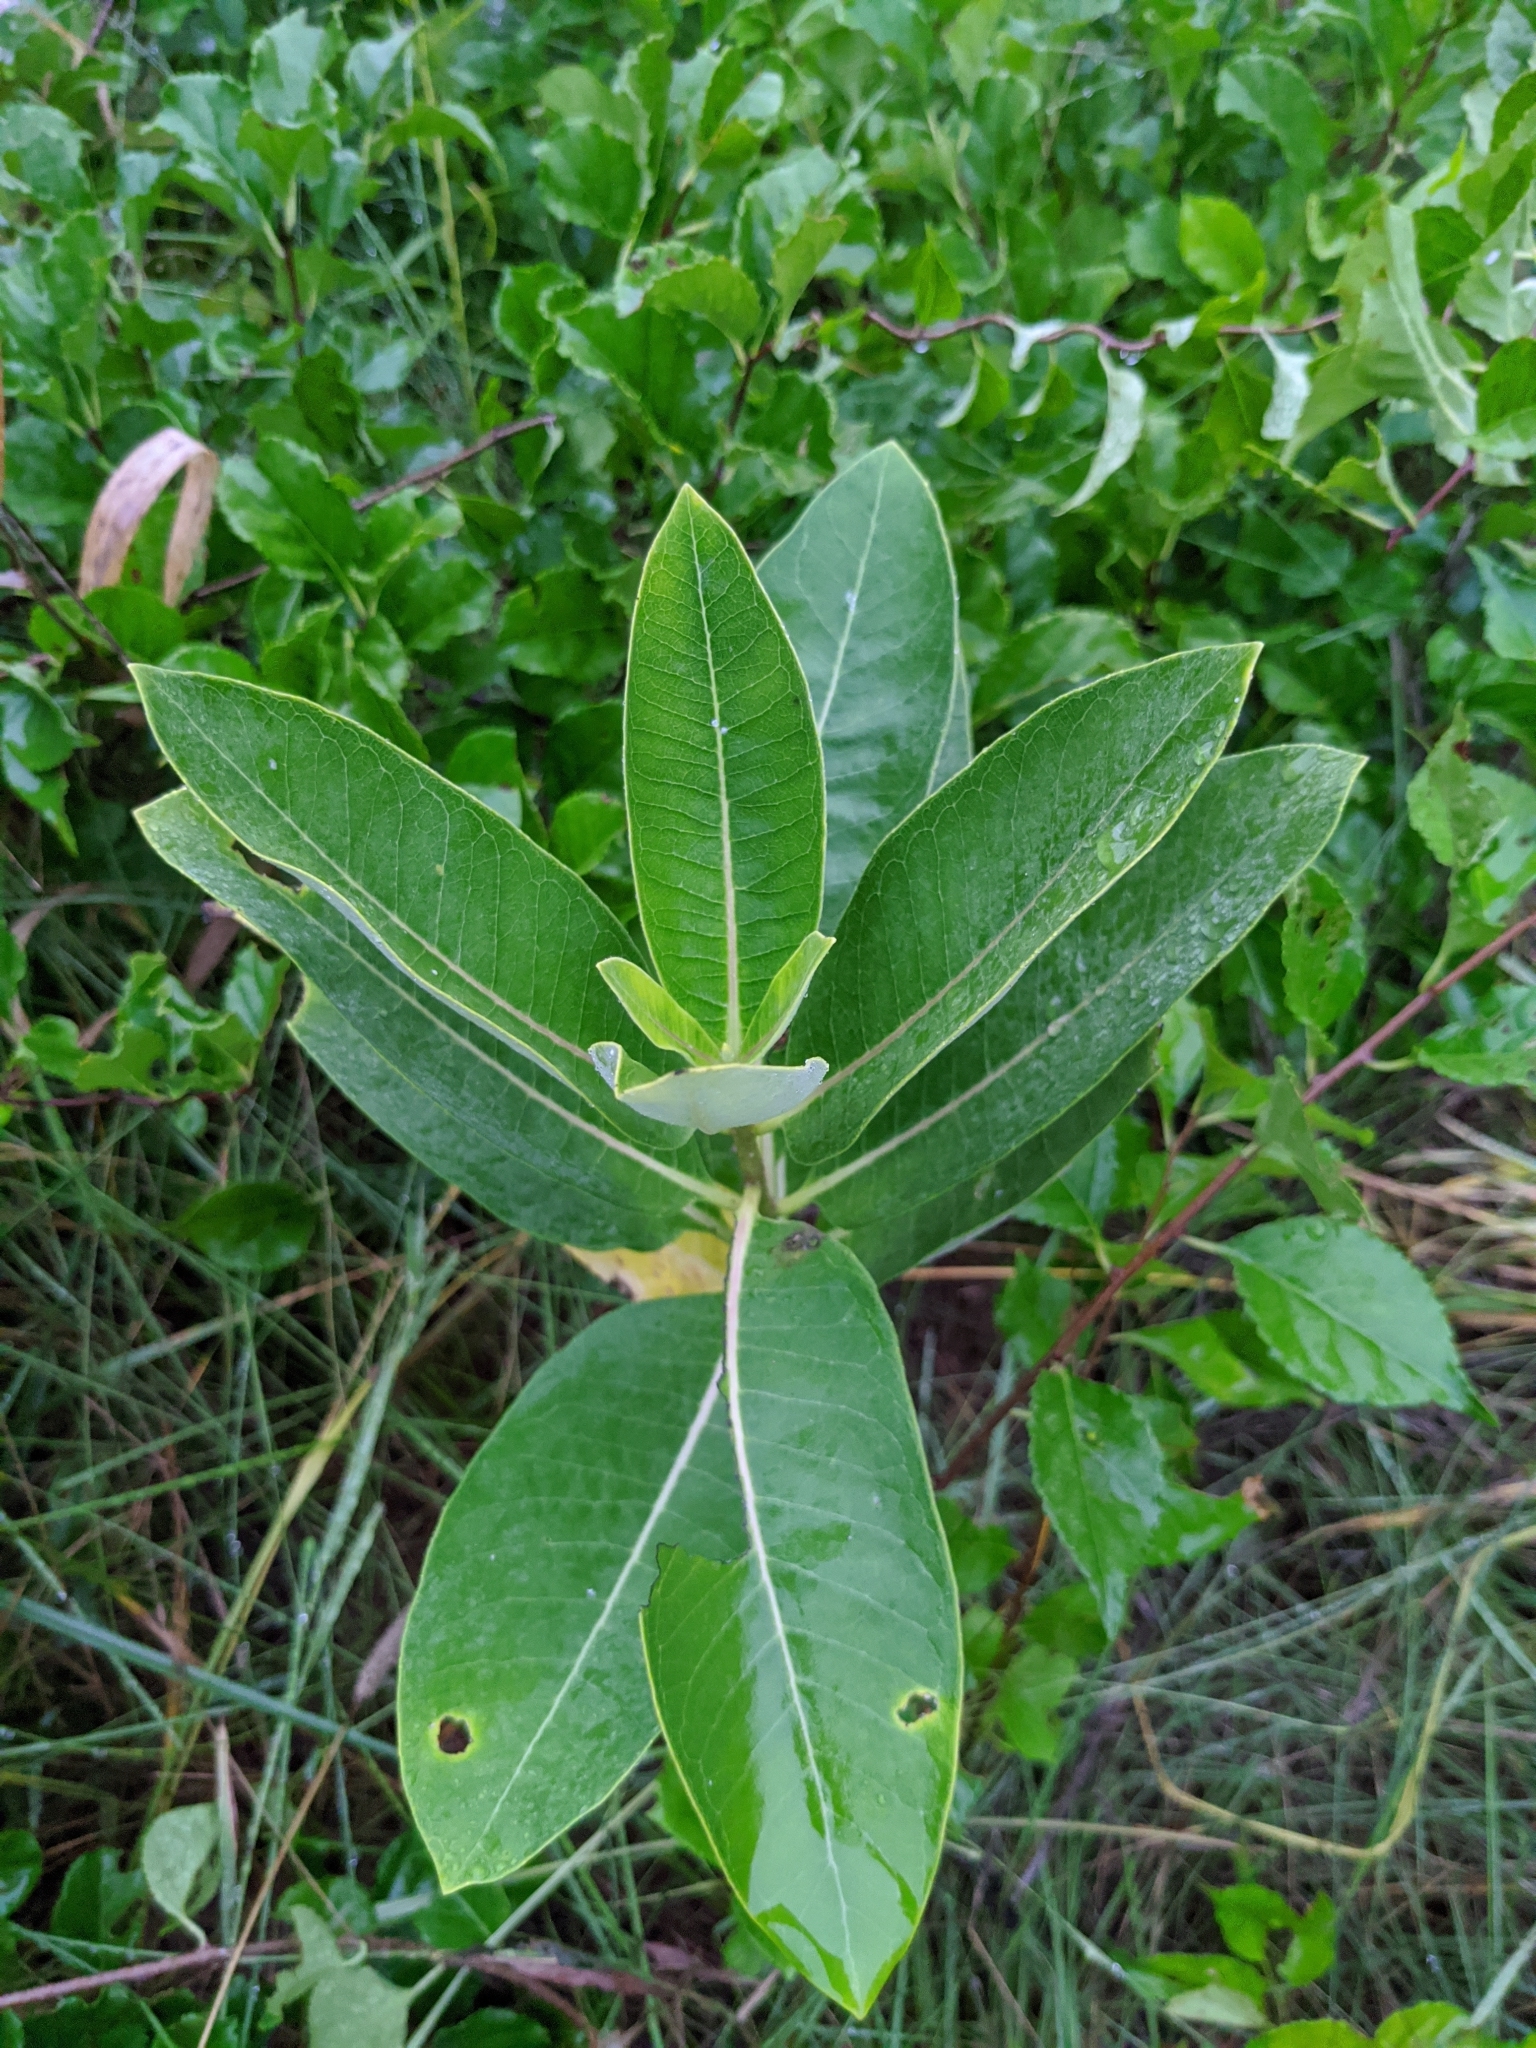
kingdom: Plantae
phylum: Tracheophyta
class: Magnoliopsida
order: Gentianales
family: Apocynaceae
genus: Asclepias
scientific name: Asclepias syriaca
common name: Common milkweed
